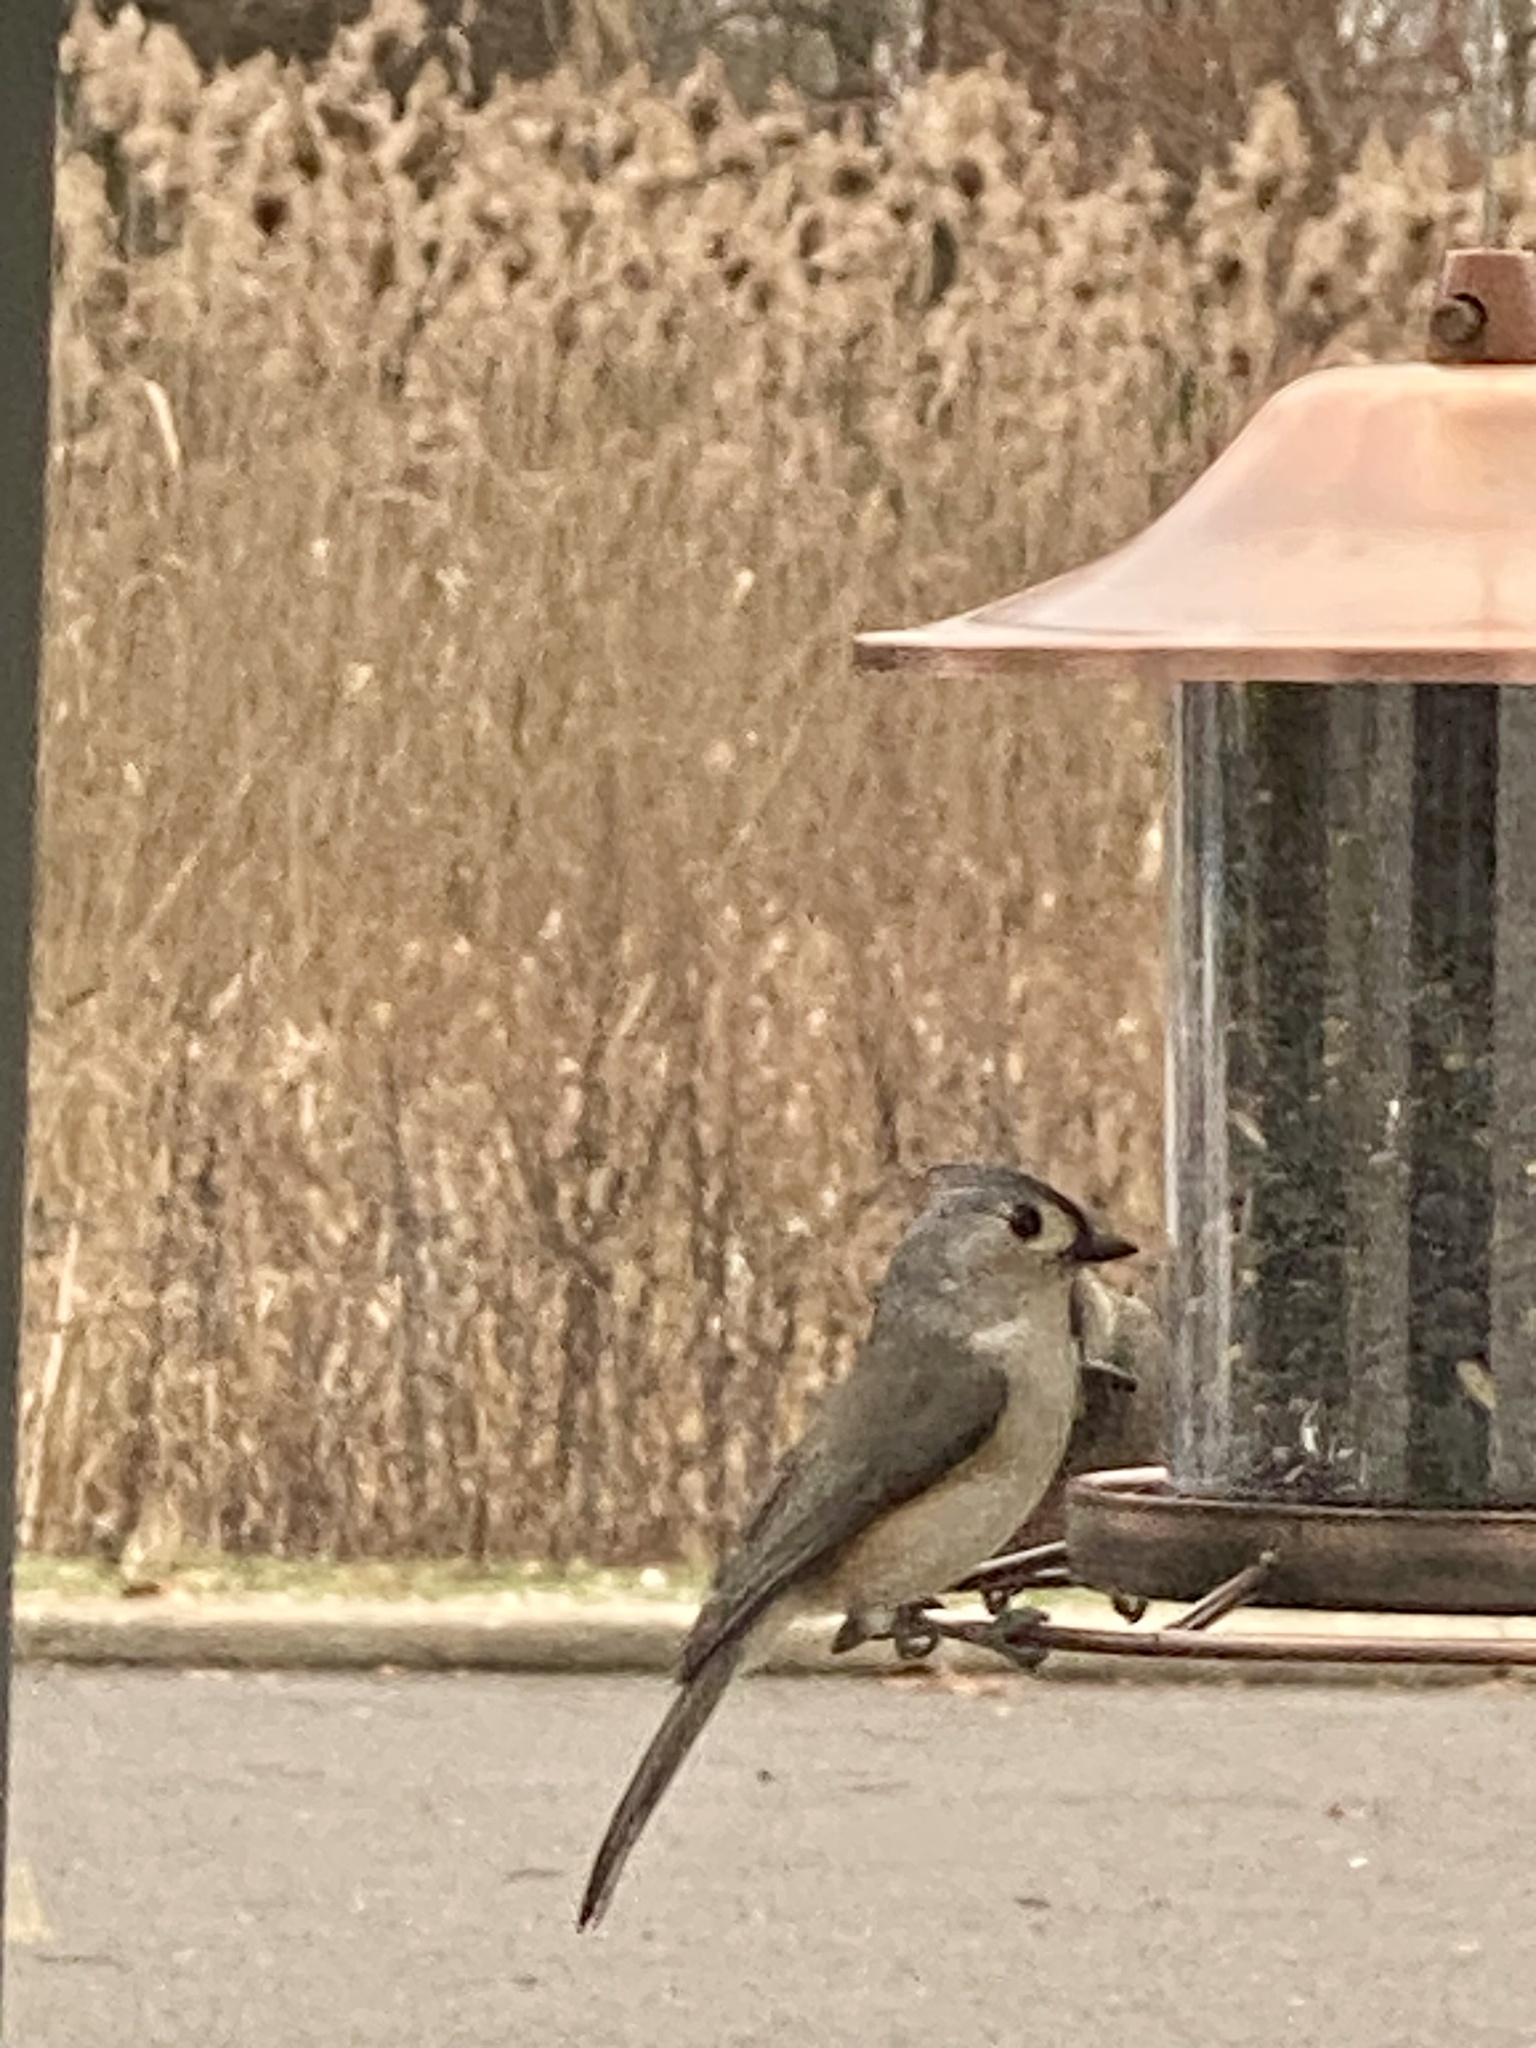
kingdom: Animalia
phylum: Chordata
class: Aves
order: Passeriformes
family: Paridae
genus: Baeolophus
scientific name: Baeolophus bicolor
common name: Tufted titmouse
